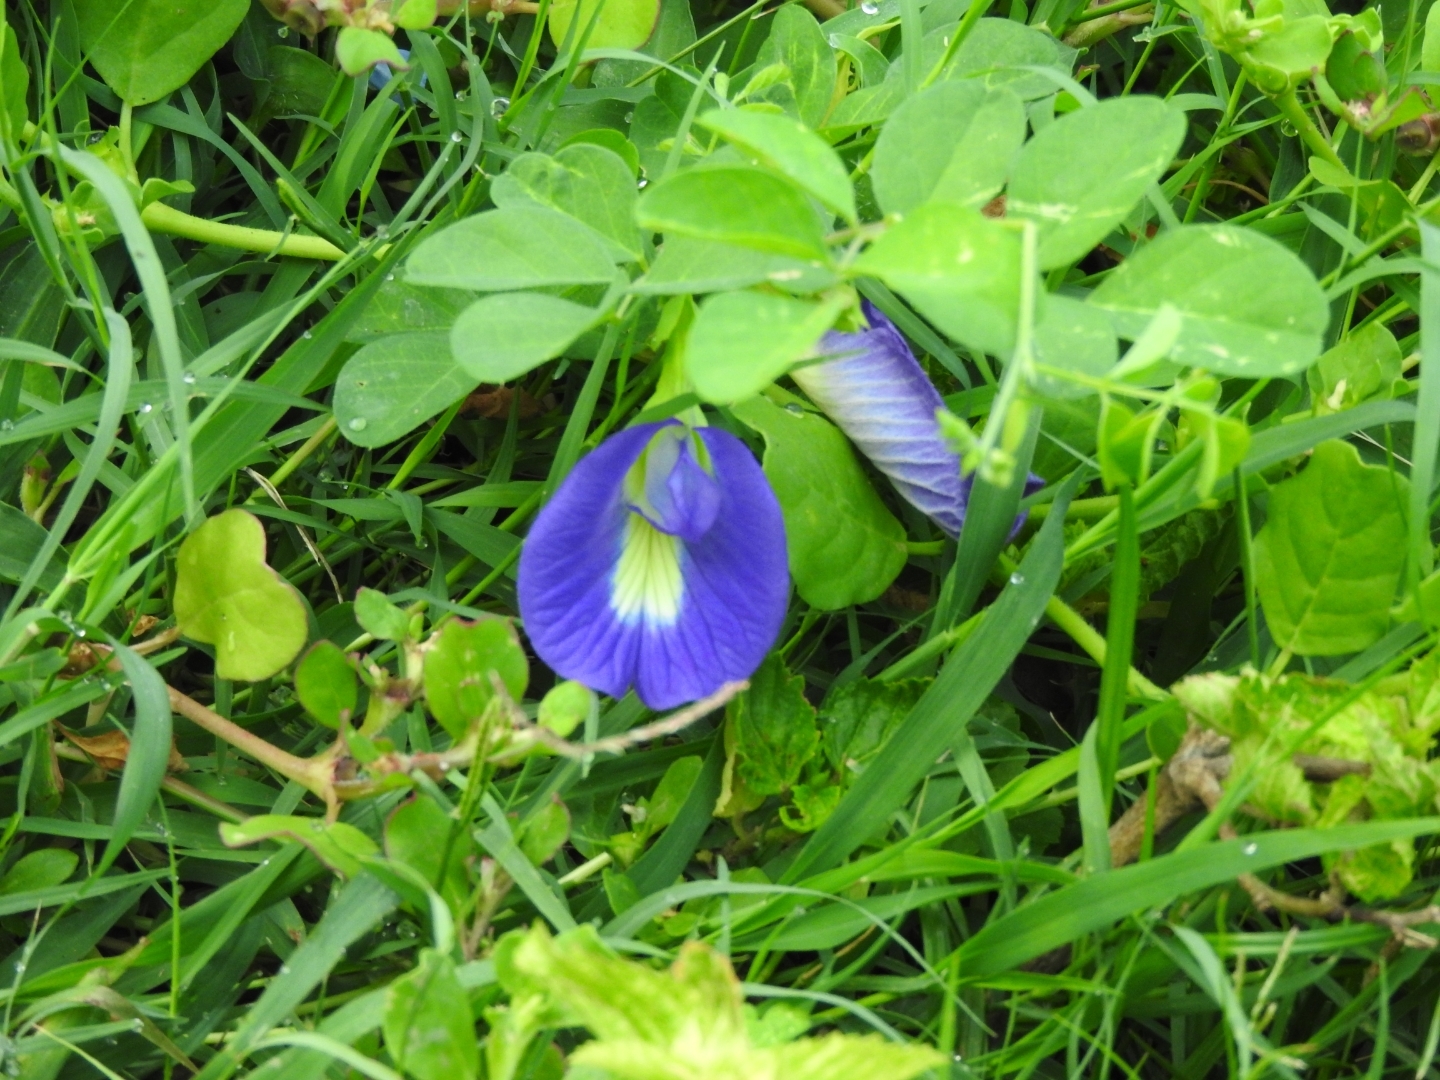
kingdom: Plantae
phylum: Tracheophyta
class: Magnoliopsida
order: Fabales
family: Fabaceae
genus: Clitoria
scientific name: Clitoria ternatea
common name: Asian pigeonwings
